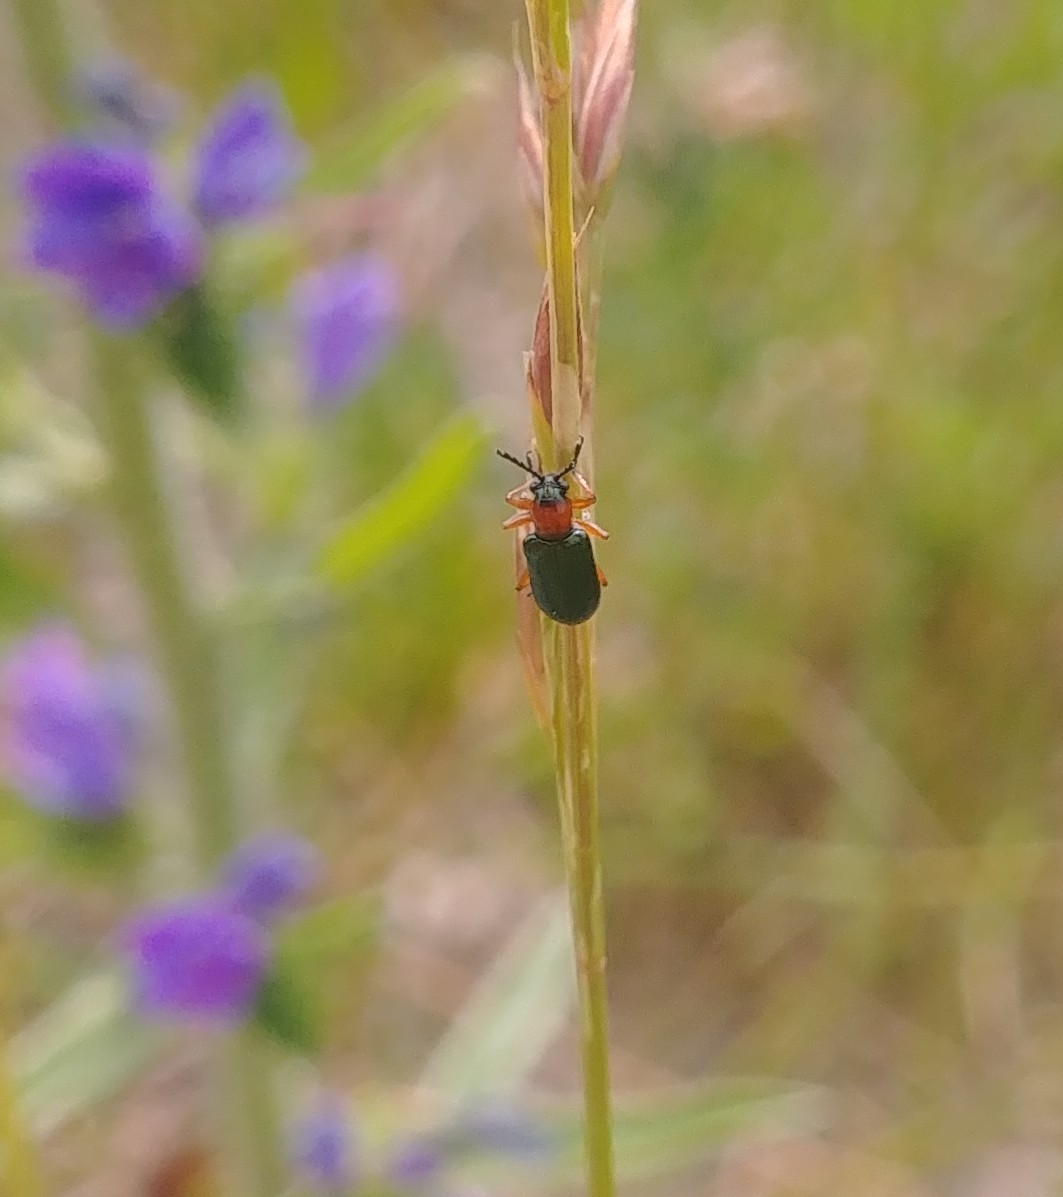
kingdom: Animalia
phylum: Arthropoda
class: Insecta
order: Coleoptera
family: Chrysomelidae
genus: Oulema
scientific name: Oulema melanopus
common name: Cereal leaf beetle
